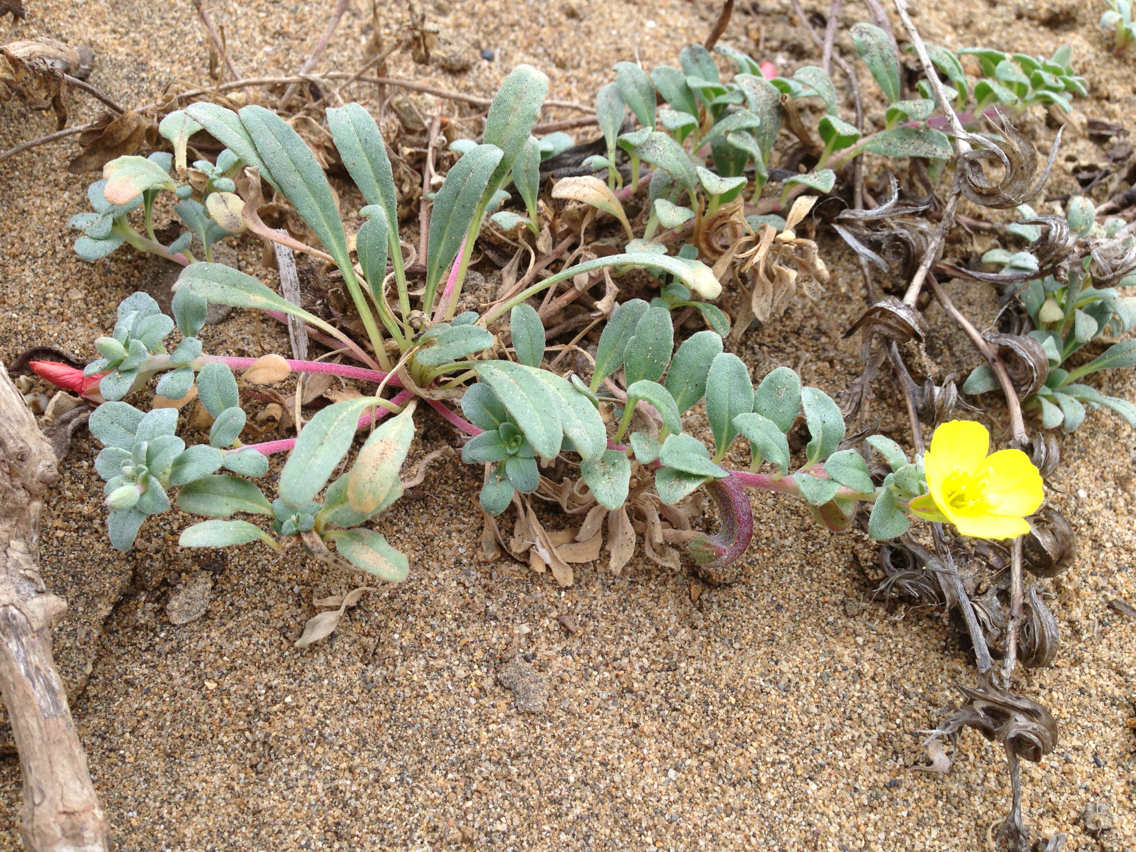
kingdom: Plantae
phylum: Tracheophyta
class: Magnoliopsida
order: Myrtales
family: Onagraceae
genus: Camissoniopsis
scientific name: Camissoniopsis cheiranthifolia
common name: Beach suncup
